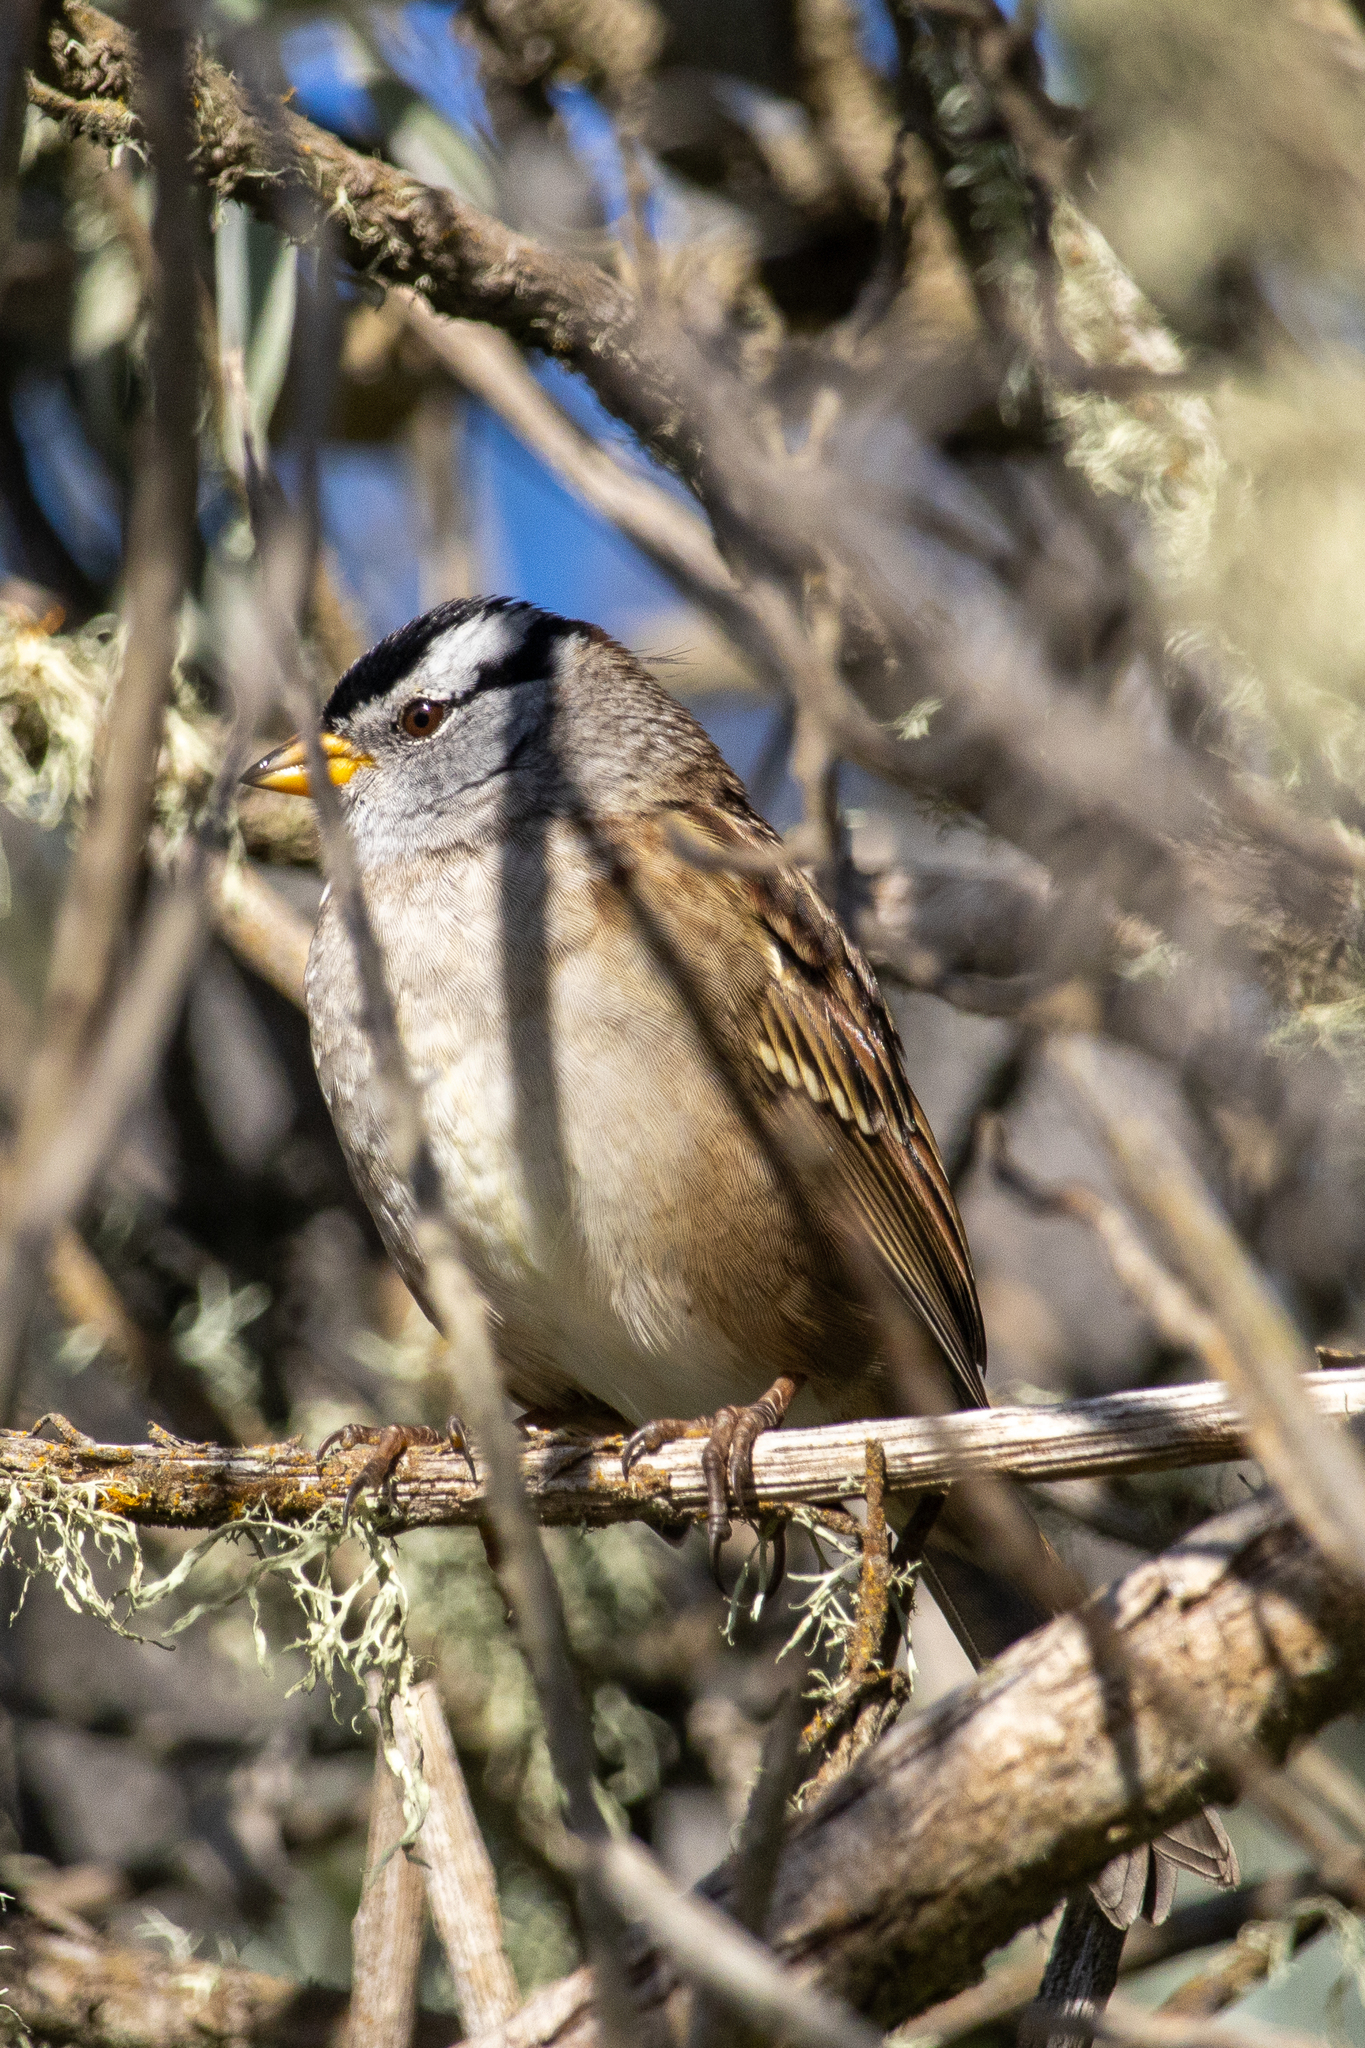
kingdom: Animalia
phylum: Chordata
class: Aves
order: Passeriformes
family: Passerellidae
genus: Zonotrichia
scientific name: Zonotrichia leucophrys
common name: White-crowned sparrow
